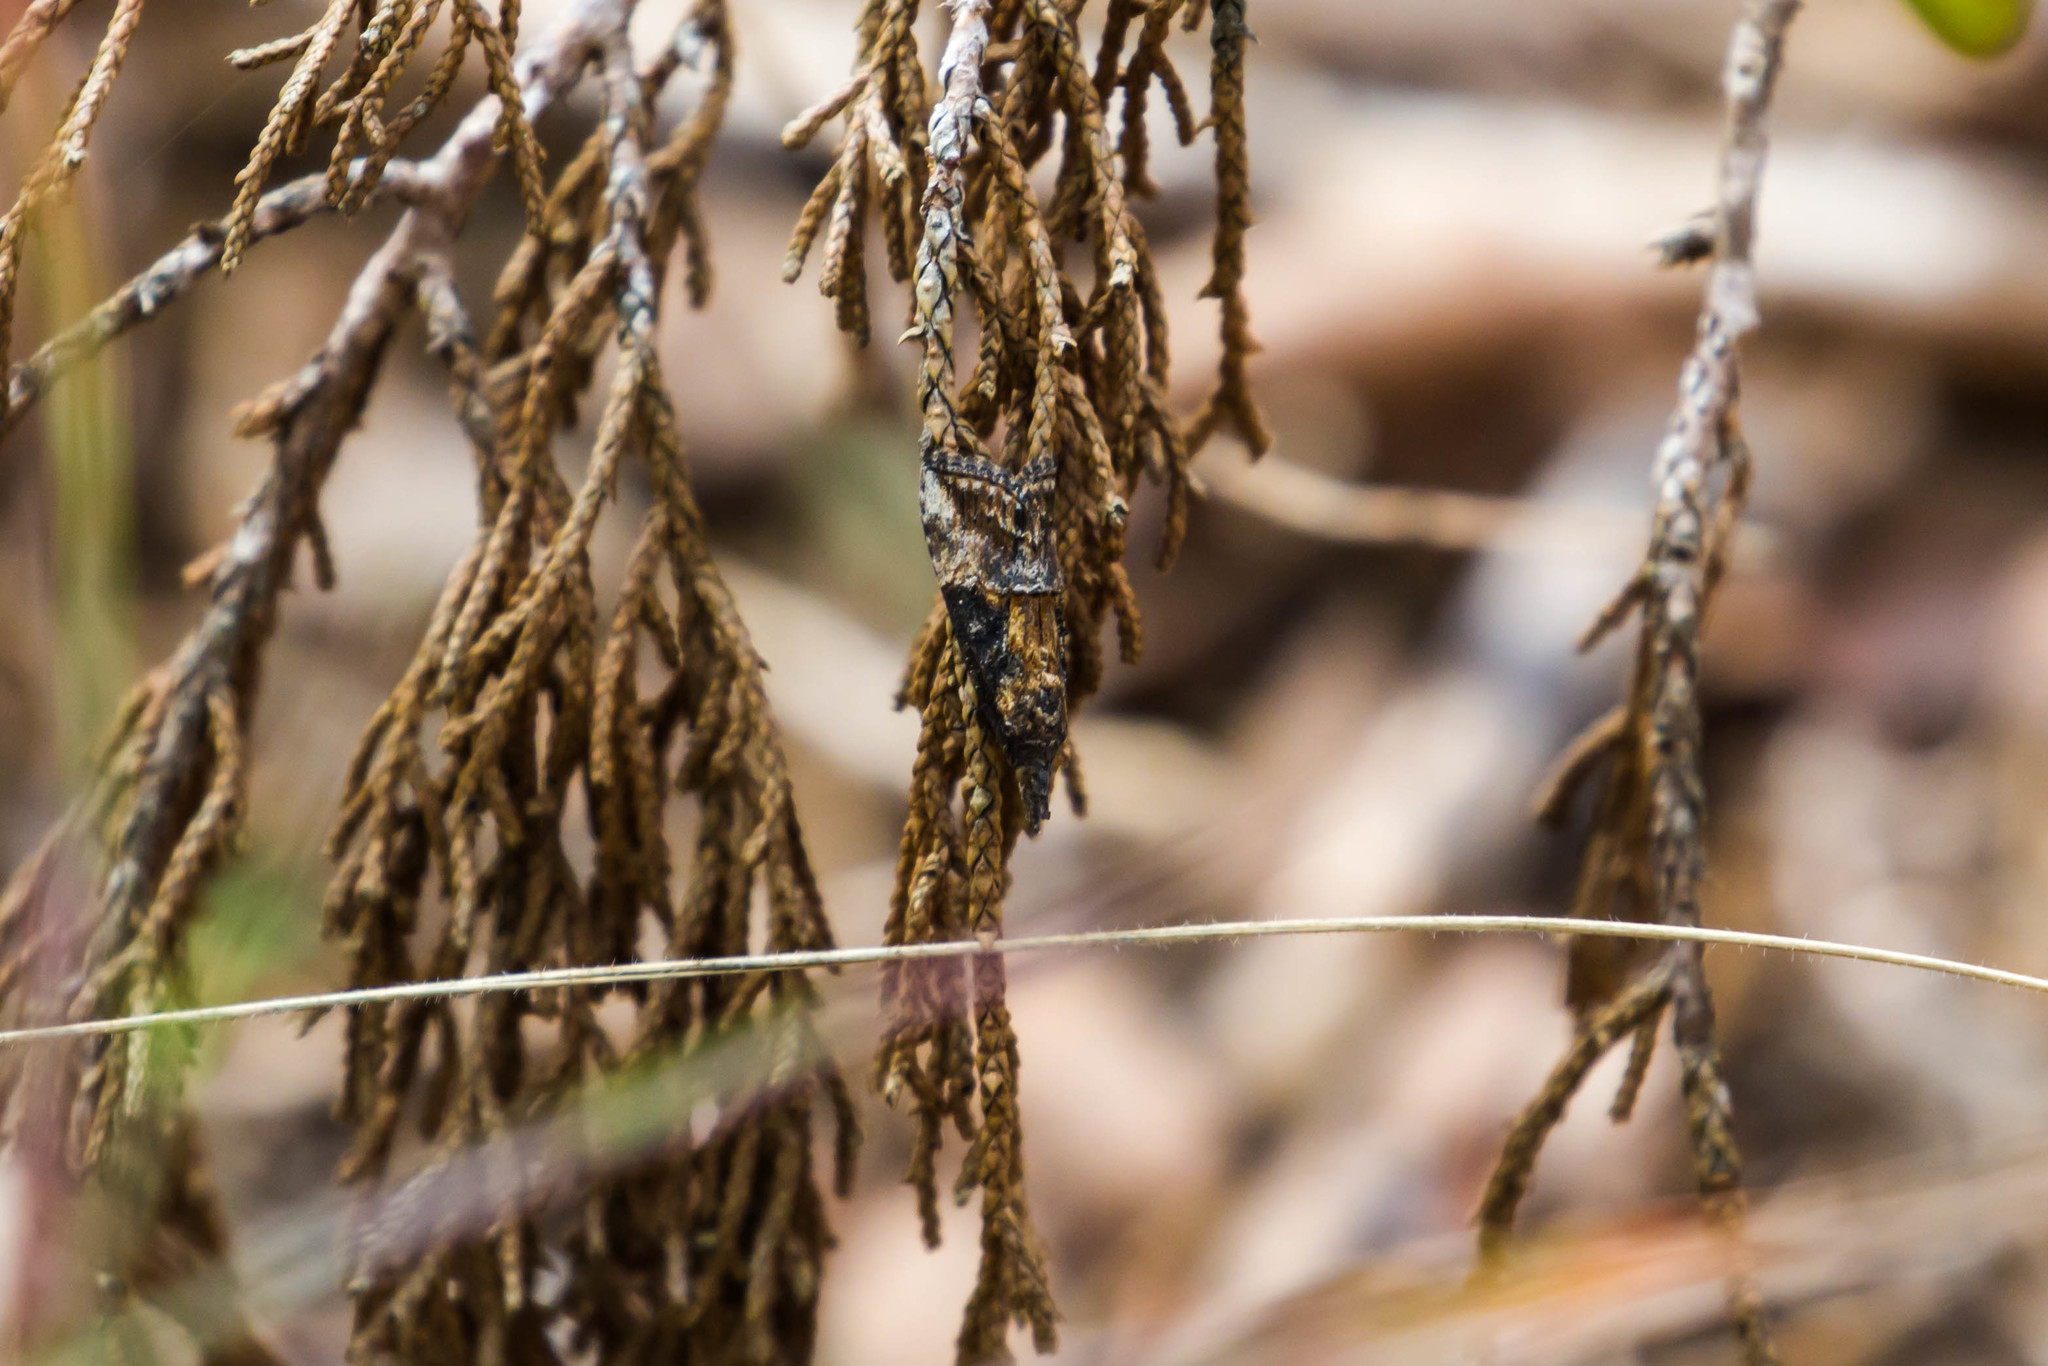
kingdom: Animalia
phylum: Arthropoda
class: Insecta
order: Lepidoptera
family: Erebidae
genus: Hypena
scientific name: Hypena scabra
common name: Green cloverworm
